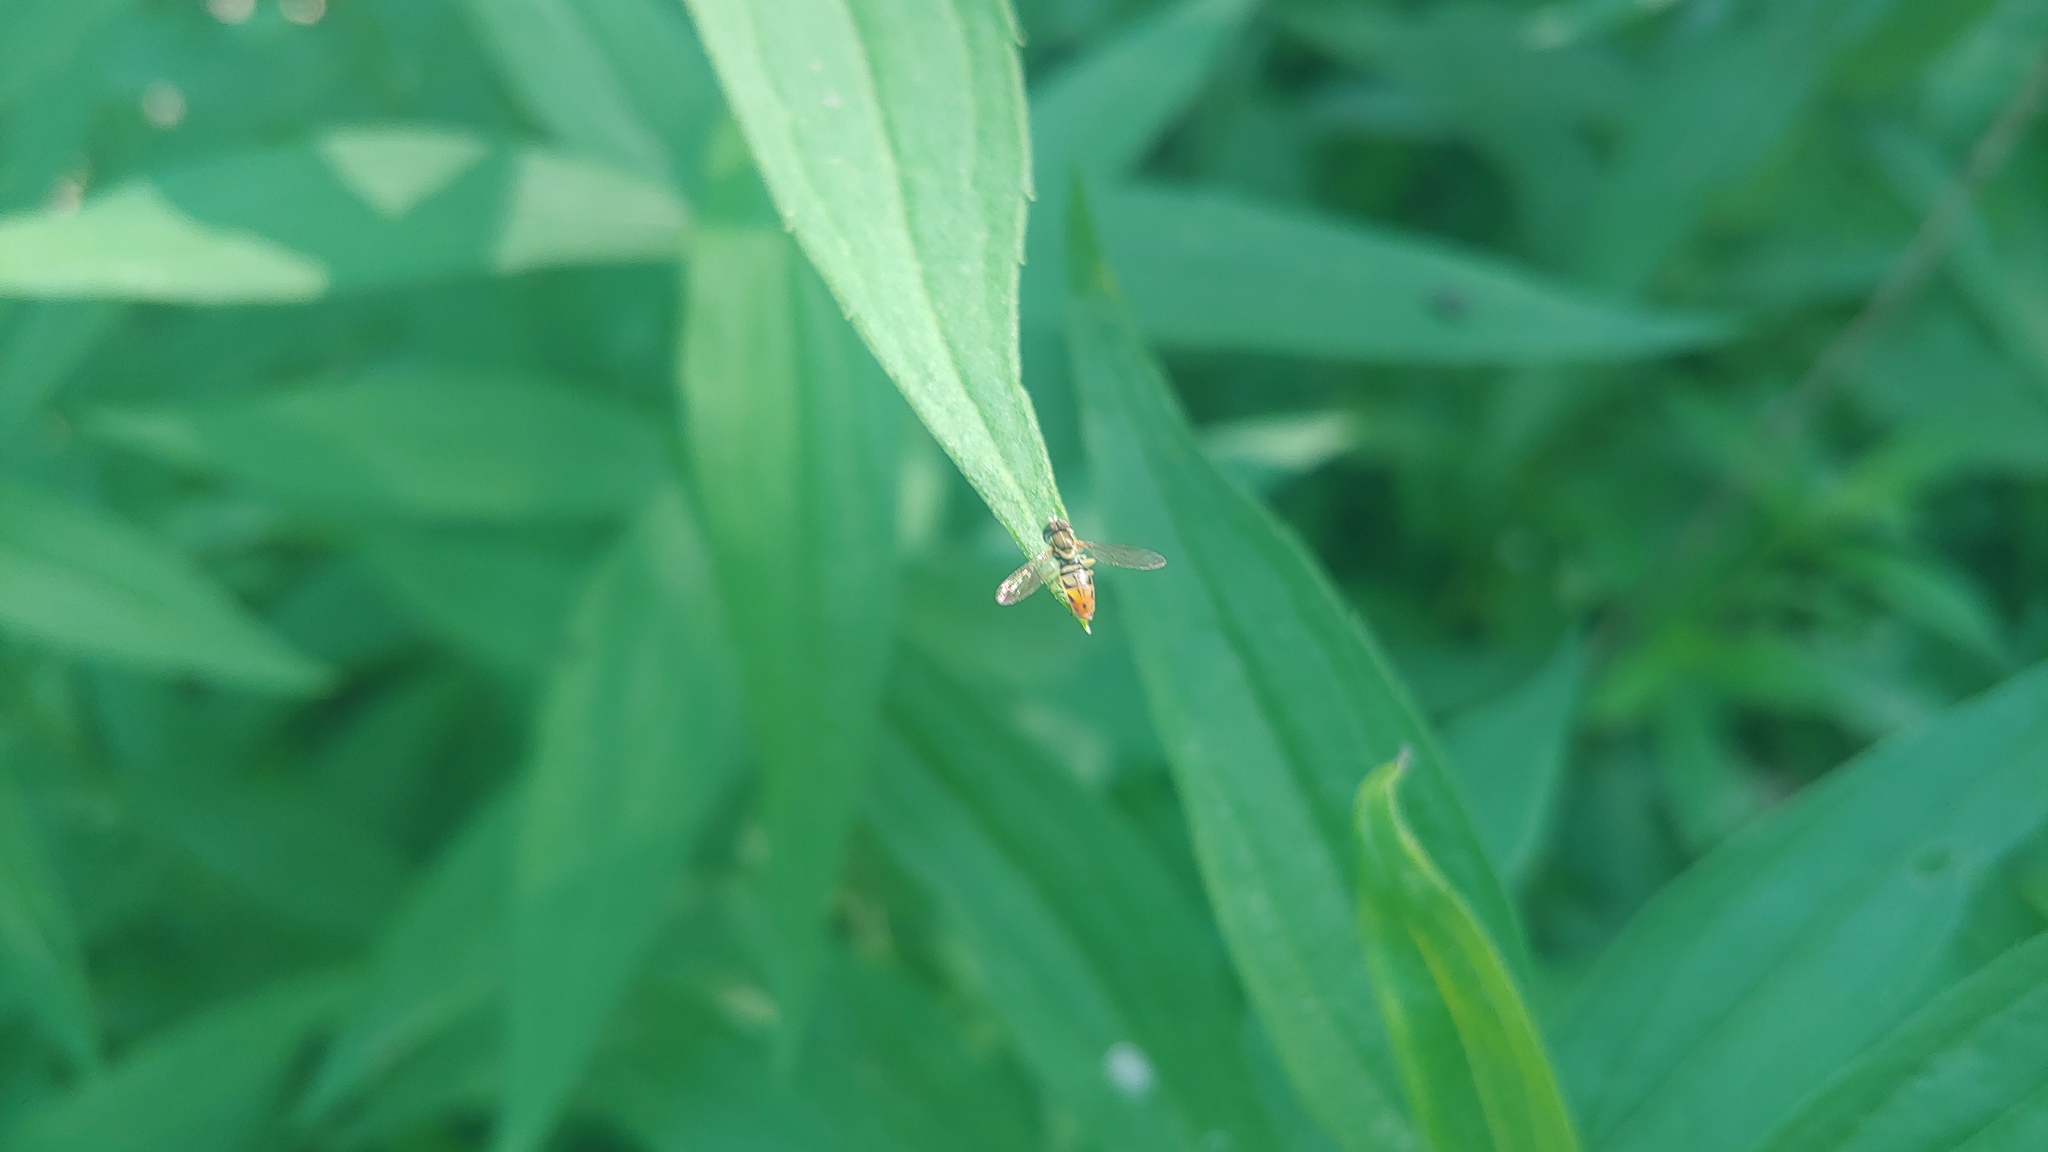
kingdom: Animalia
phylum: Arthropoda
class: Insecta
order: Diptera
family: Syrphidae
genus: Toxomerus
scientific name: Toxomerus marginatus
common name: Syrphid fly
